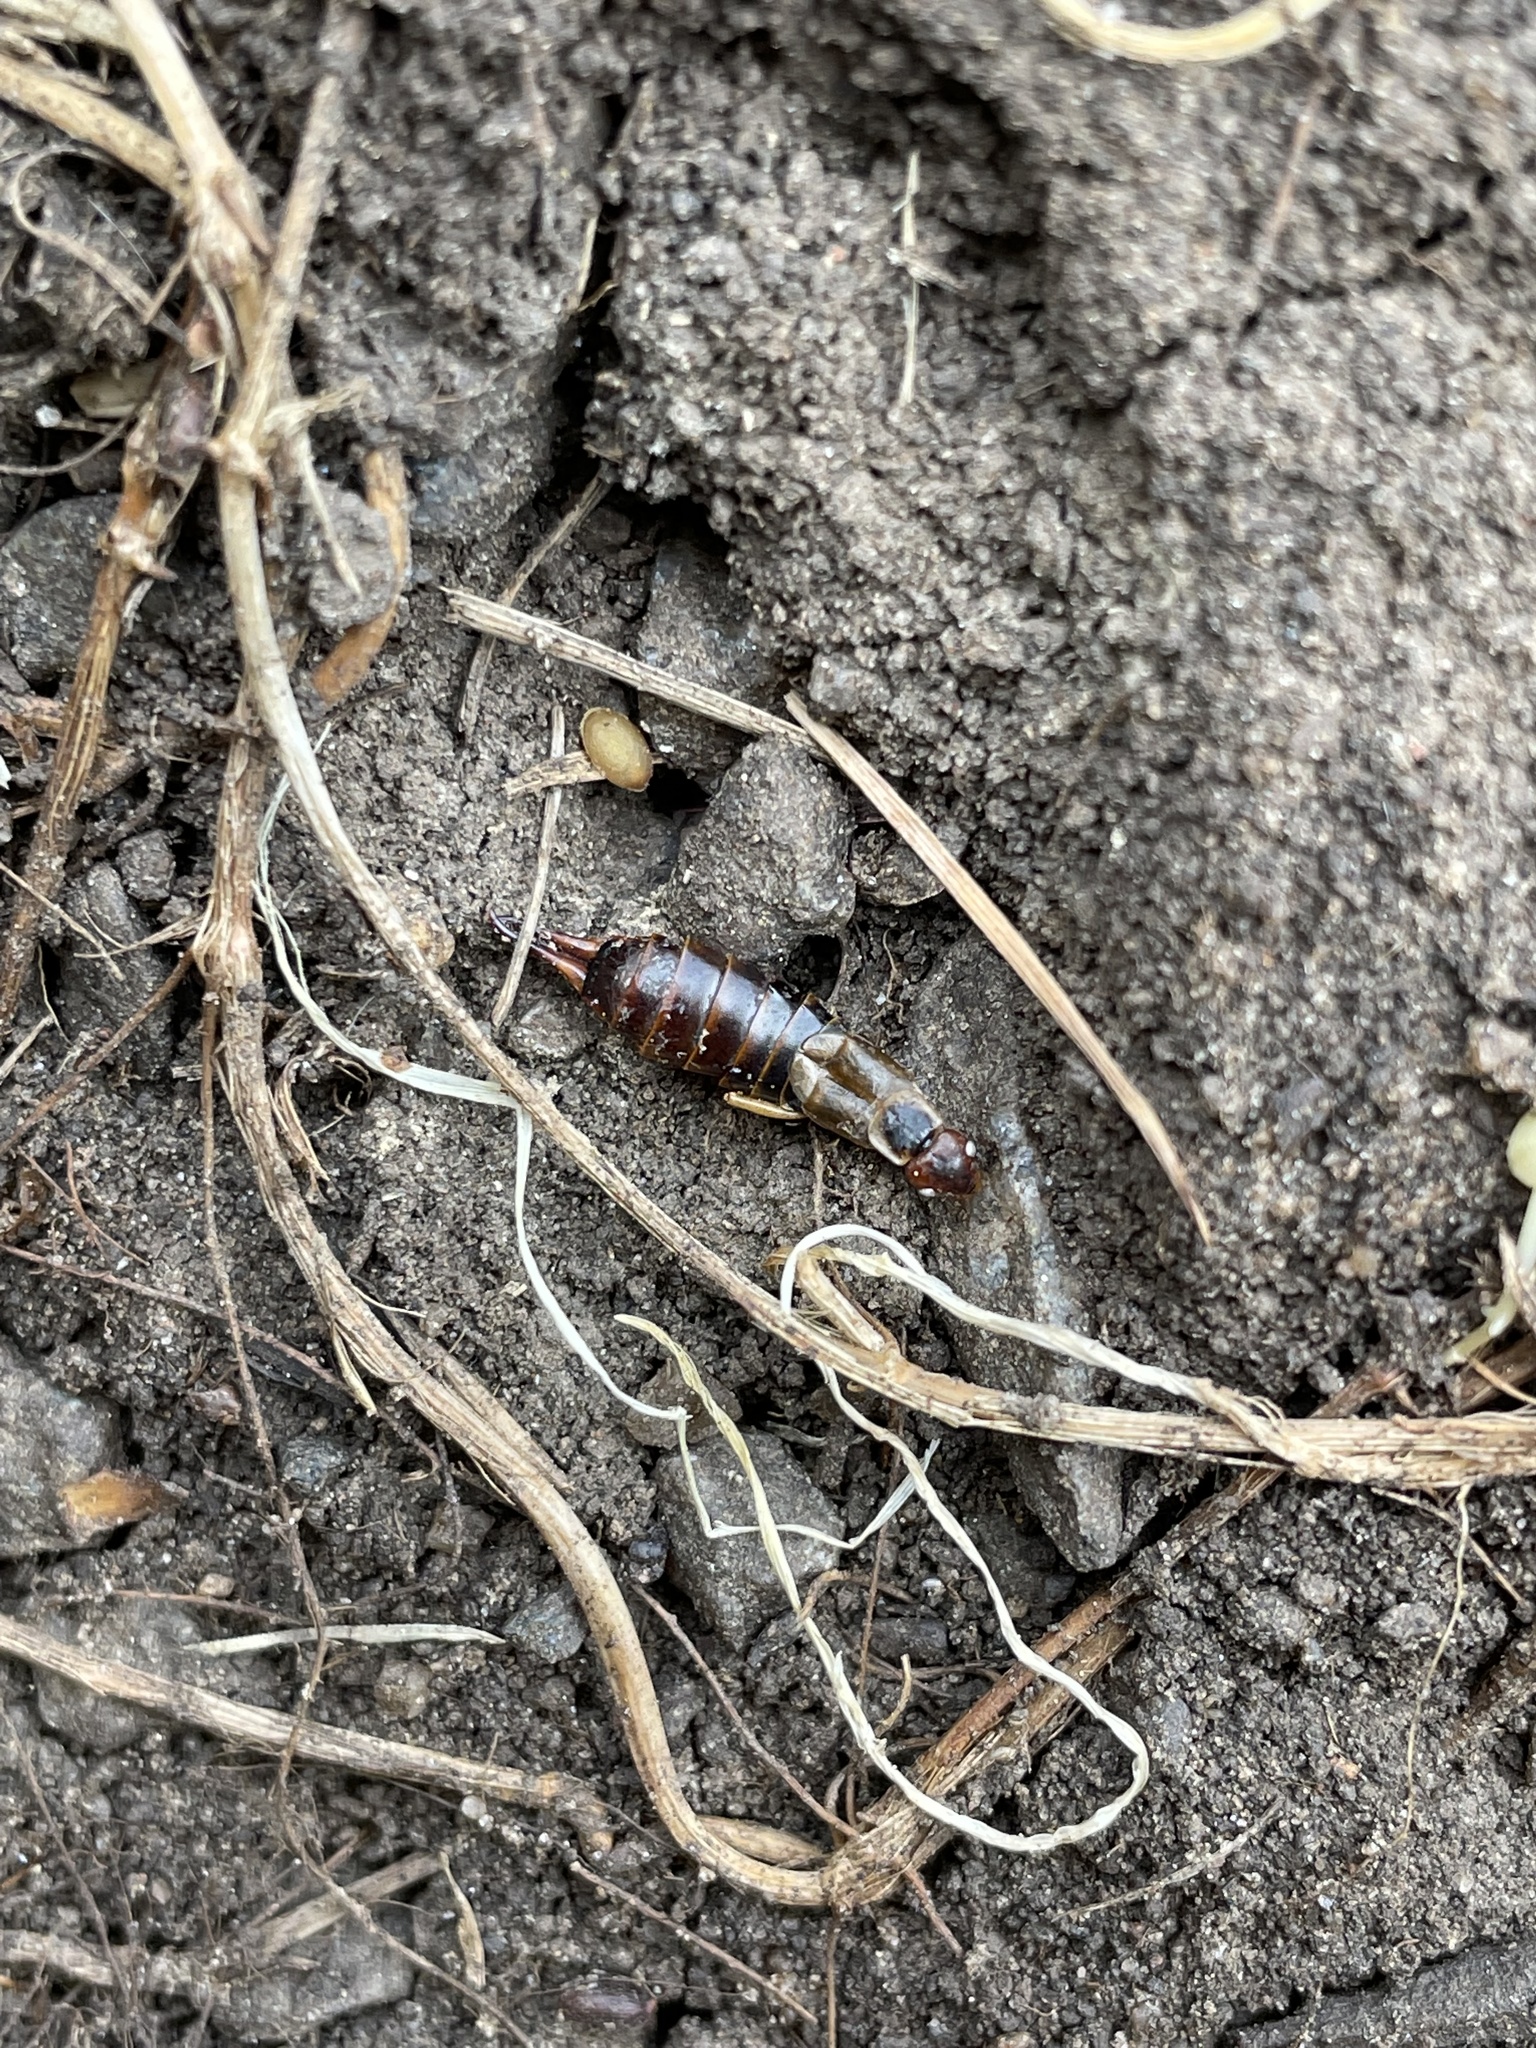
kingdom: Animalia
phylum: Arthropoda
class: Insecta
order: Dermaptera
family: Forficulidae
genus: Forficula
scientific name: Forficula
